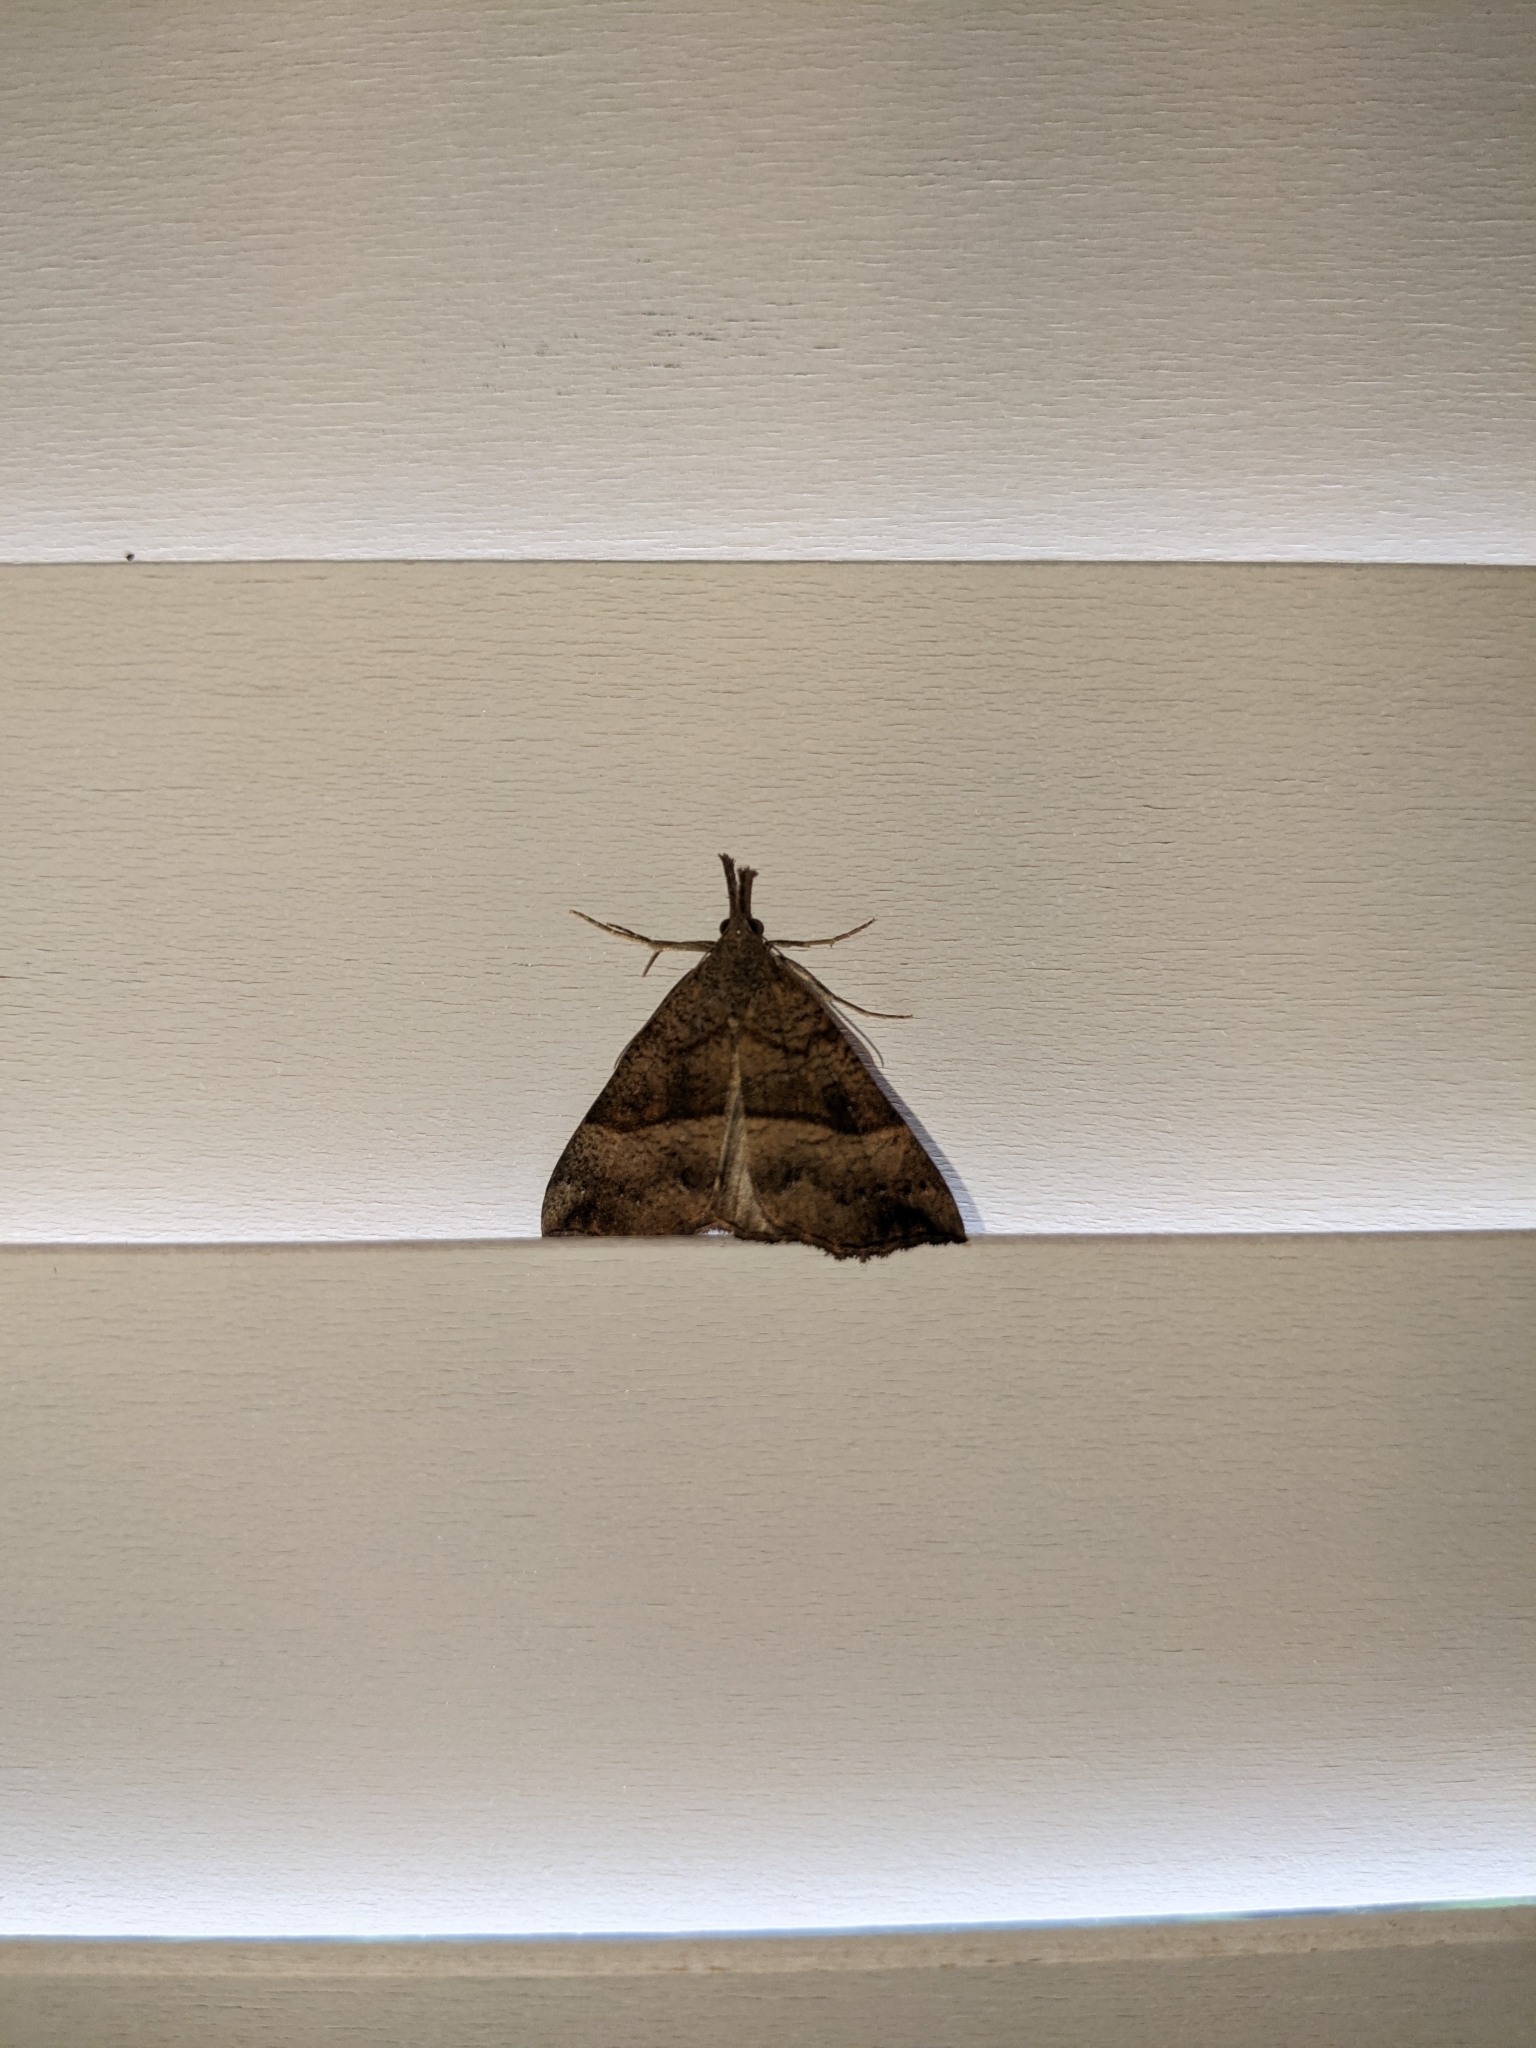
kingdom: Animalia
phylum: Arthropoda
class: Insecta
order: Lepidoptera
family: Erebidae
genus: Hypena
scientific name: Hypena proboscidalis
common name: Snout
